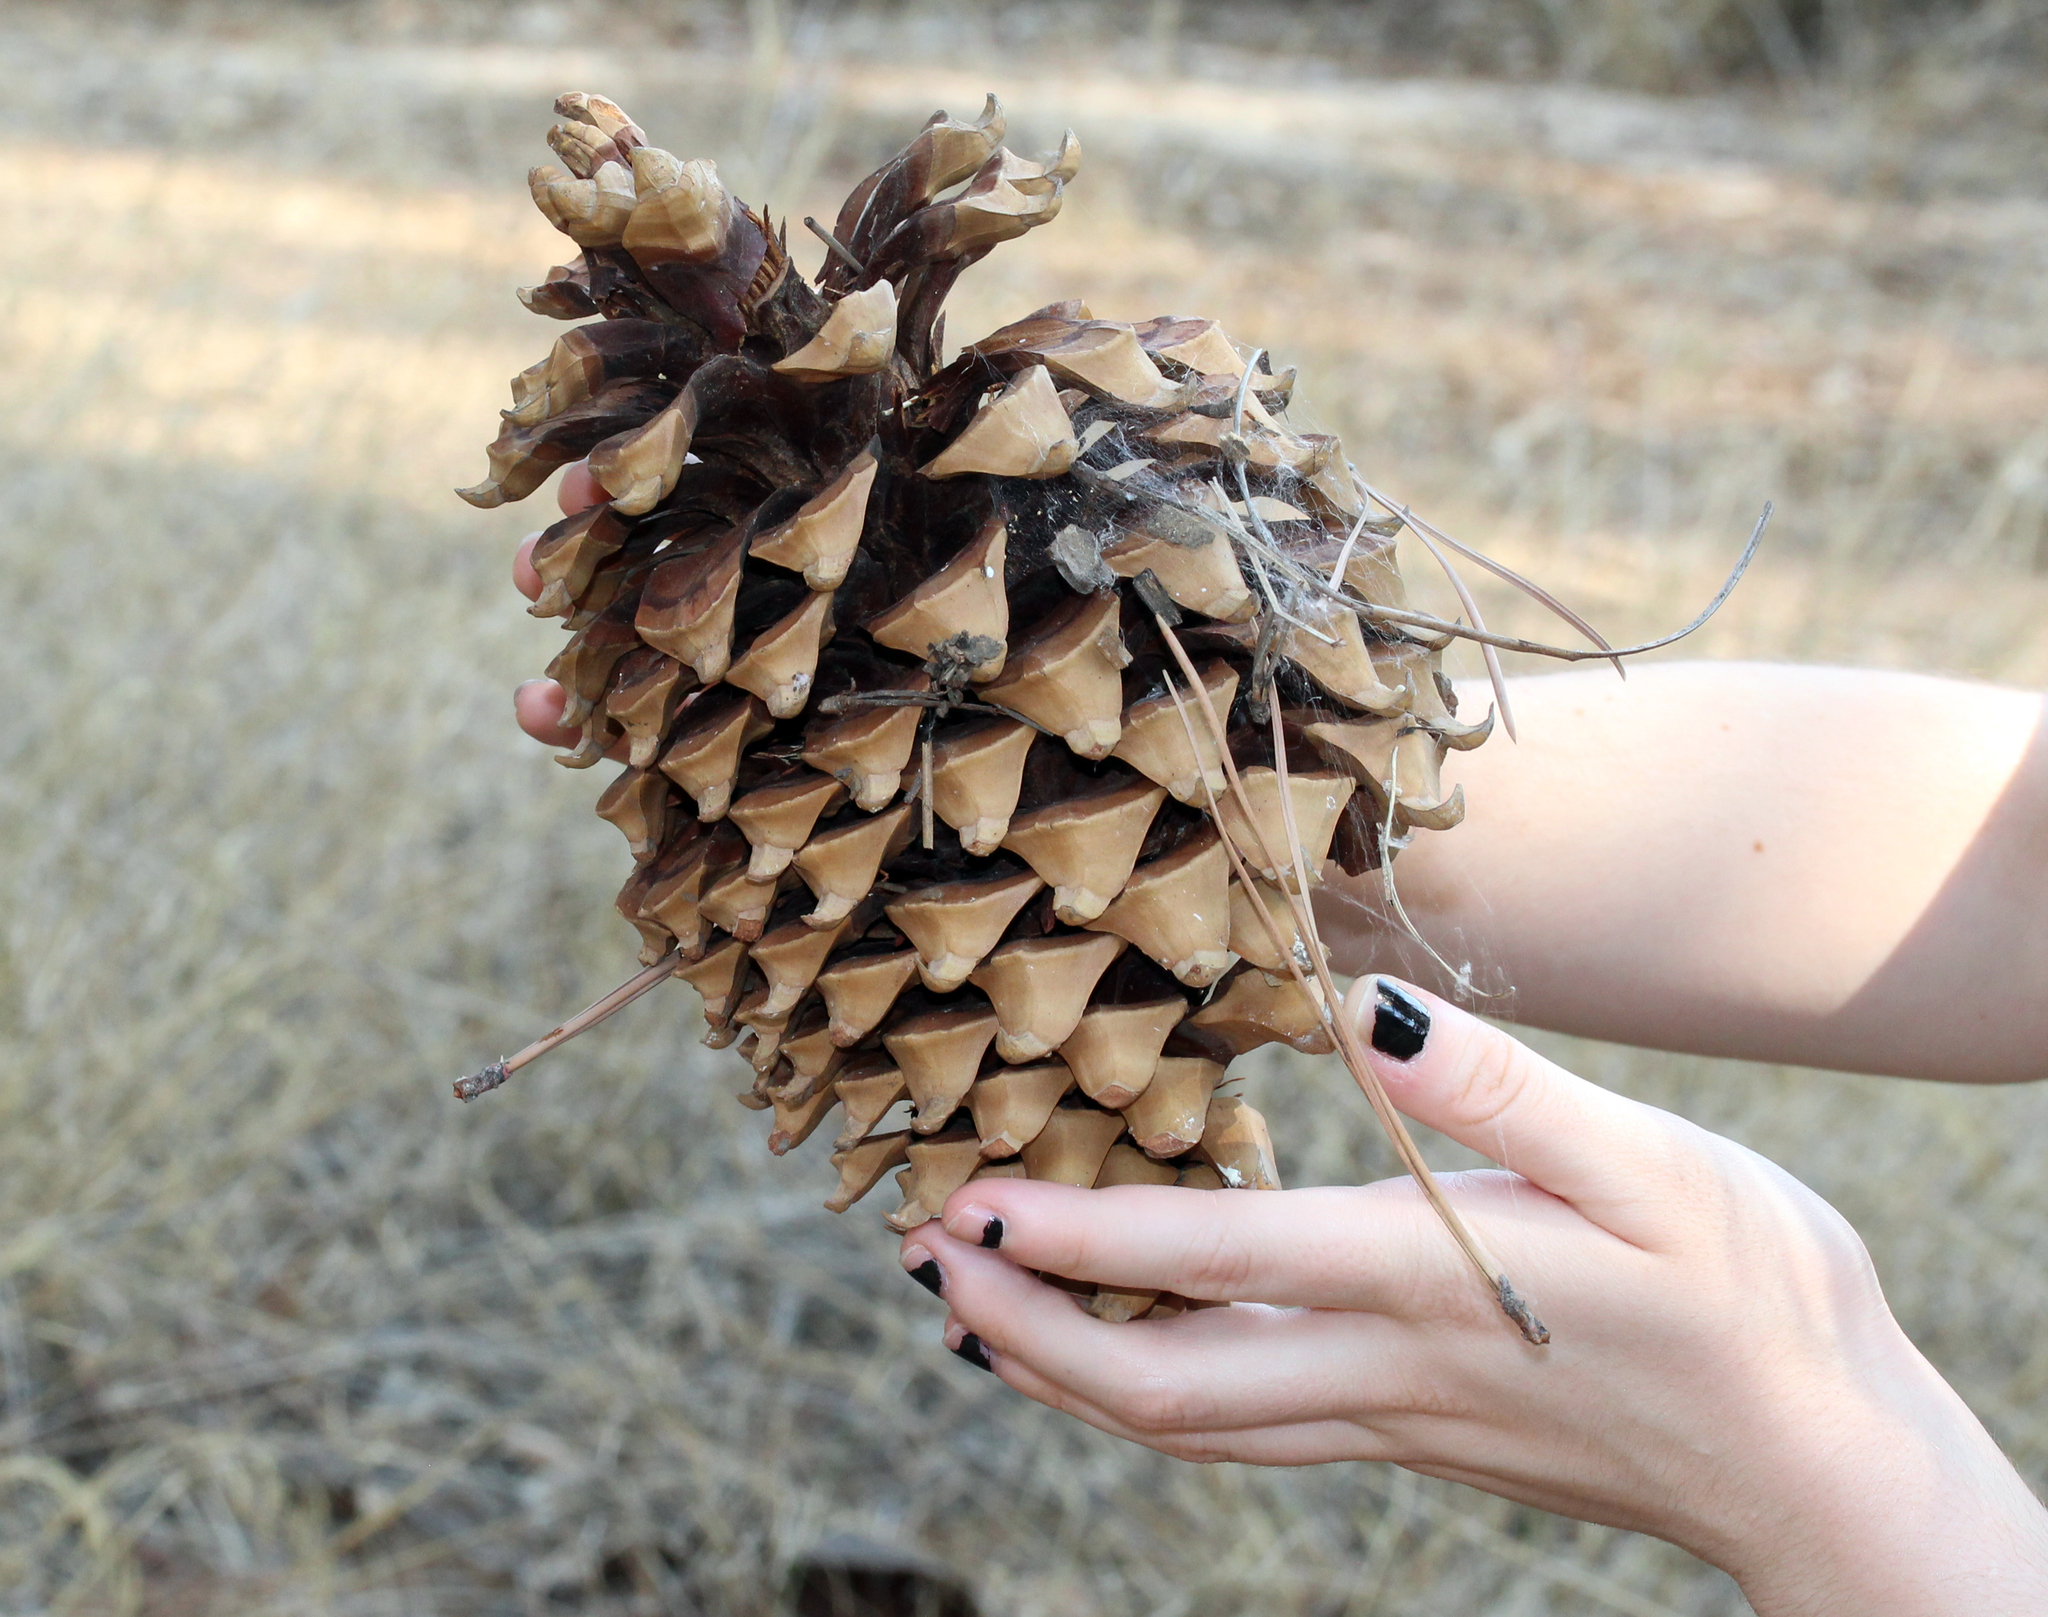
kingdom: Plantae
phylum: Tracheophyta
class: Pinopsida
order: Pinales
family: Pinaceae
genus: Pinus
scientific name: Pinus coulteri
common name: Coulter pine
